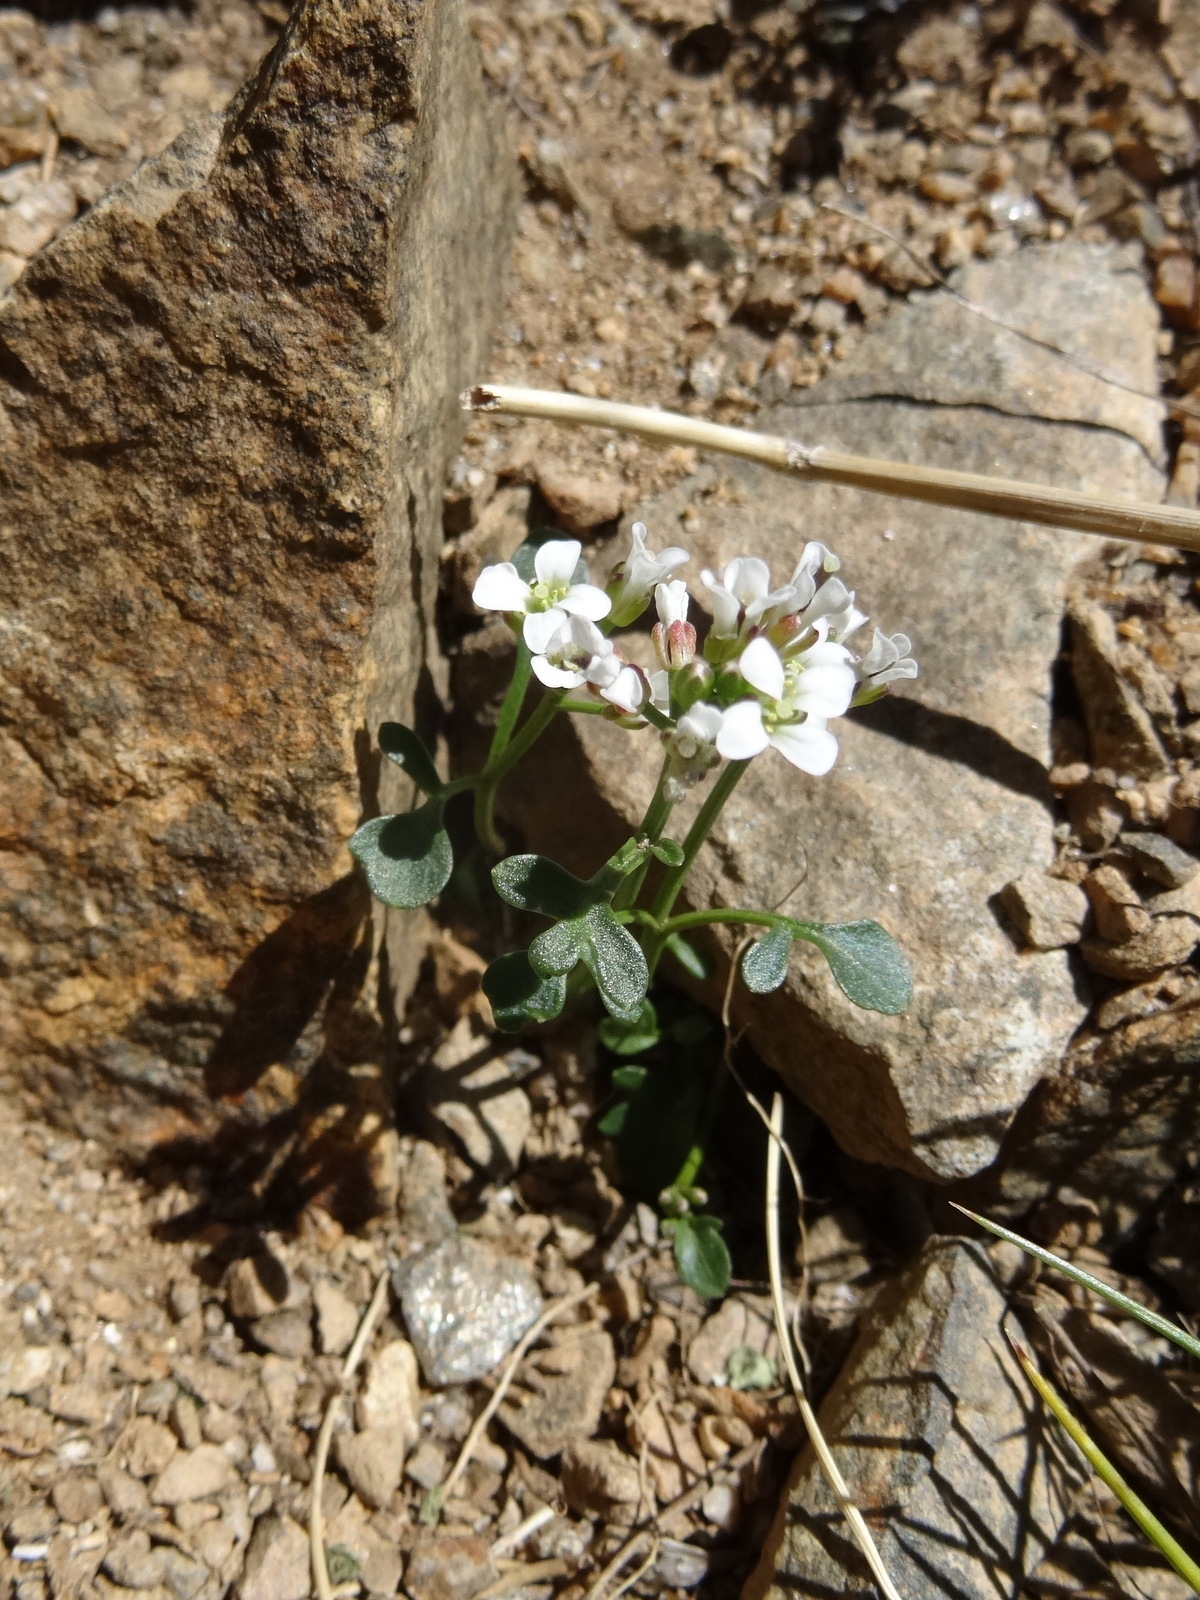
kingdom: Plantae
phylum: Tracheophyta
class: Magnoliopsida
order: Brassicales
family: Brassicaceae
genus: Cardamine
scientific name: Cardamine resedifolia
